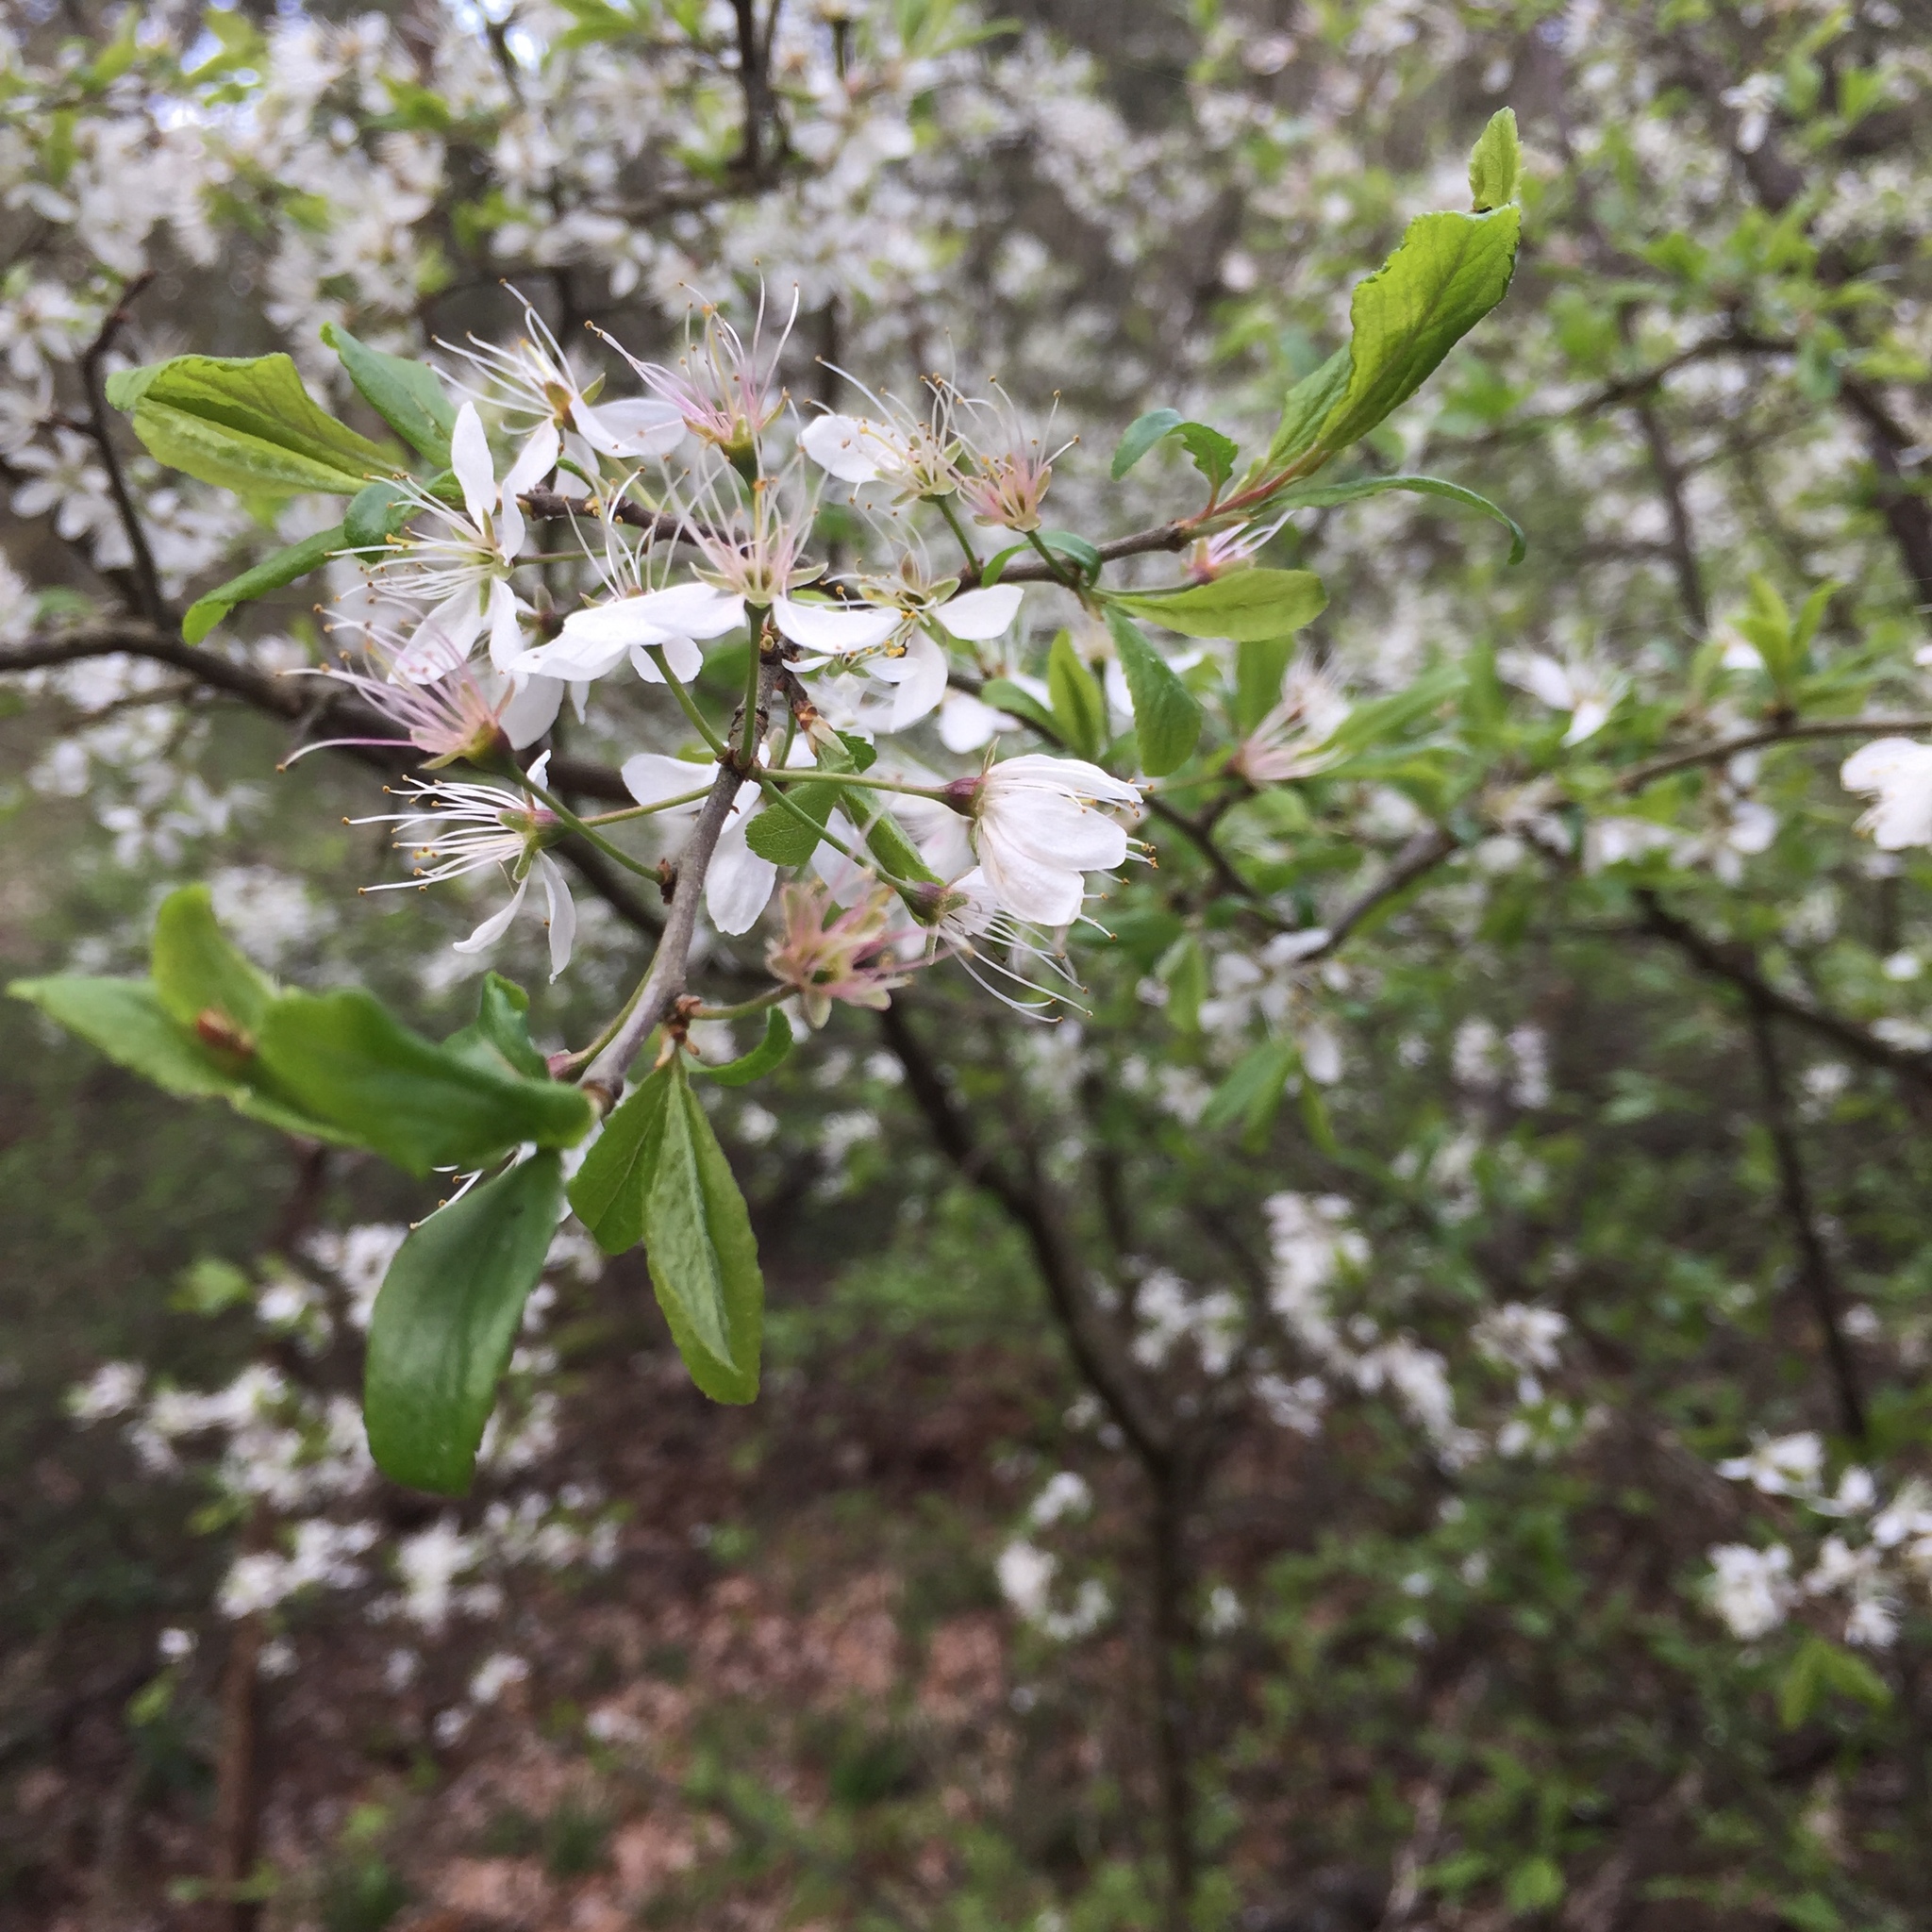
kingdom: Plantae
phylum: Tracheophyta
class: Magnoliopsida
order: Rosales
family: Rosaceae
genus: Prunus
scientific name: Prunus spinosa
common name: Blackthorn
